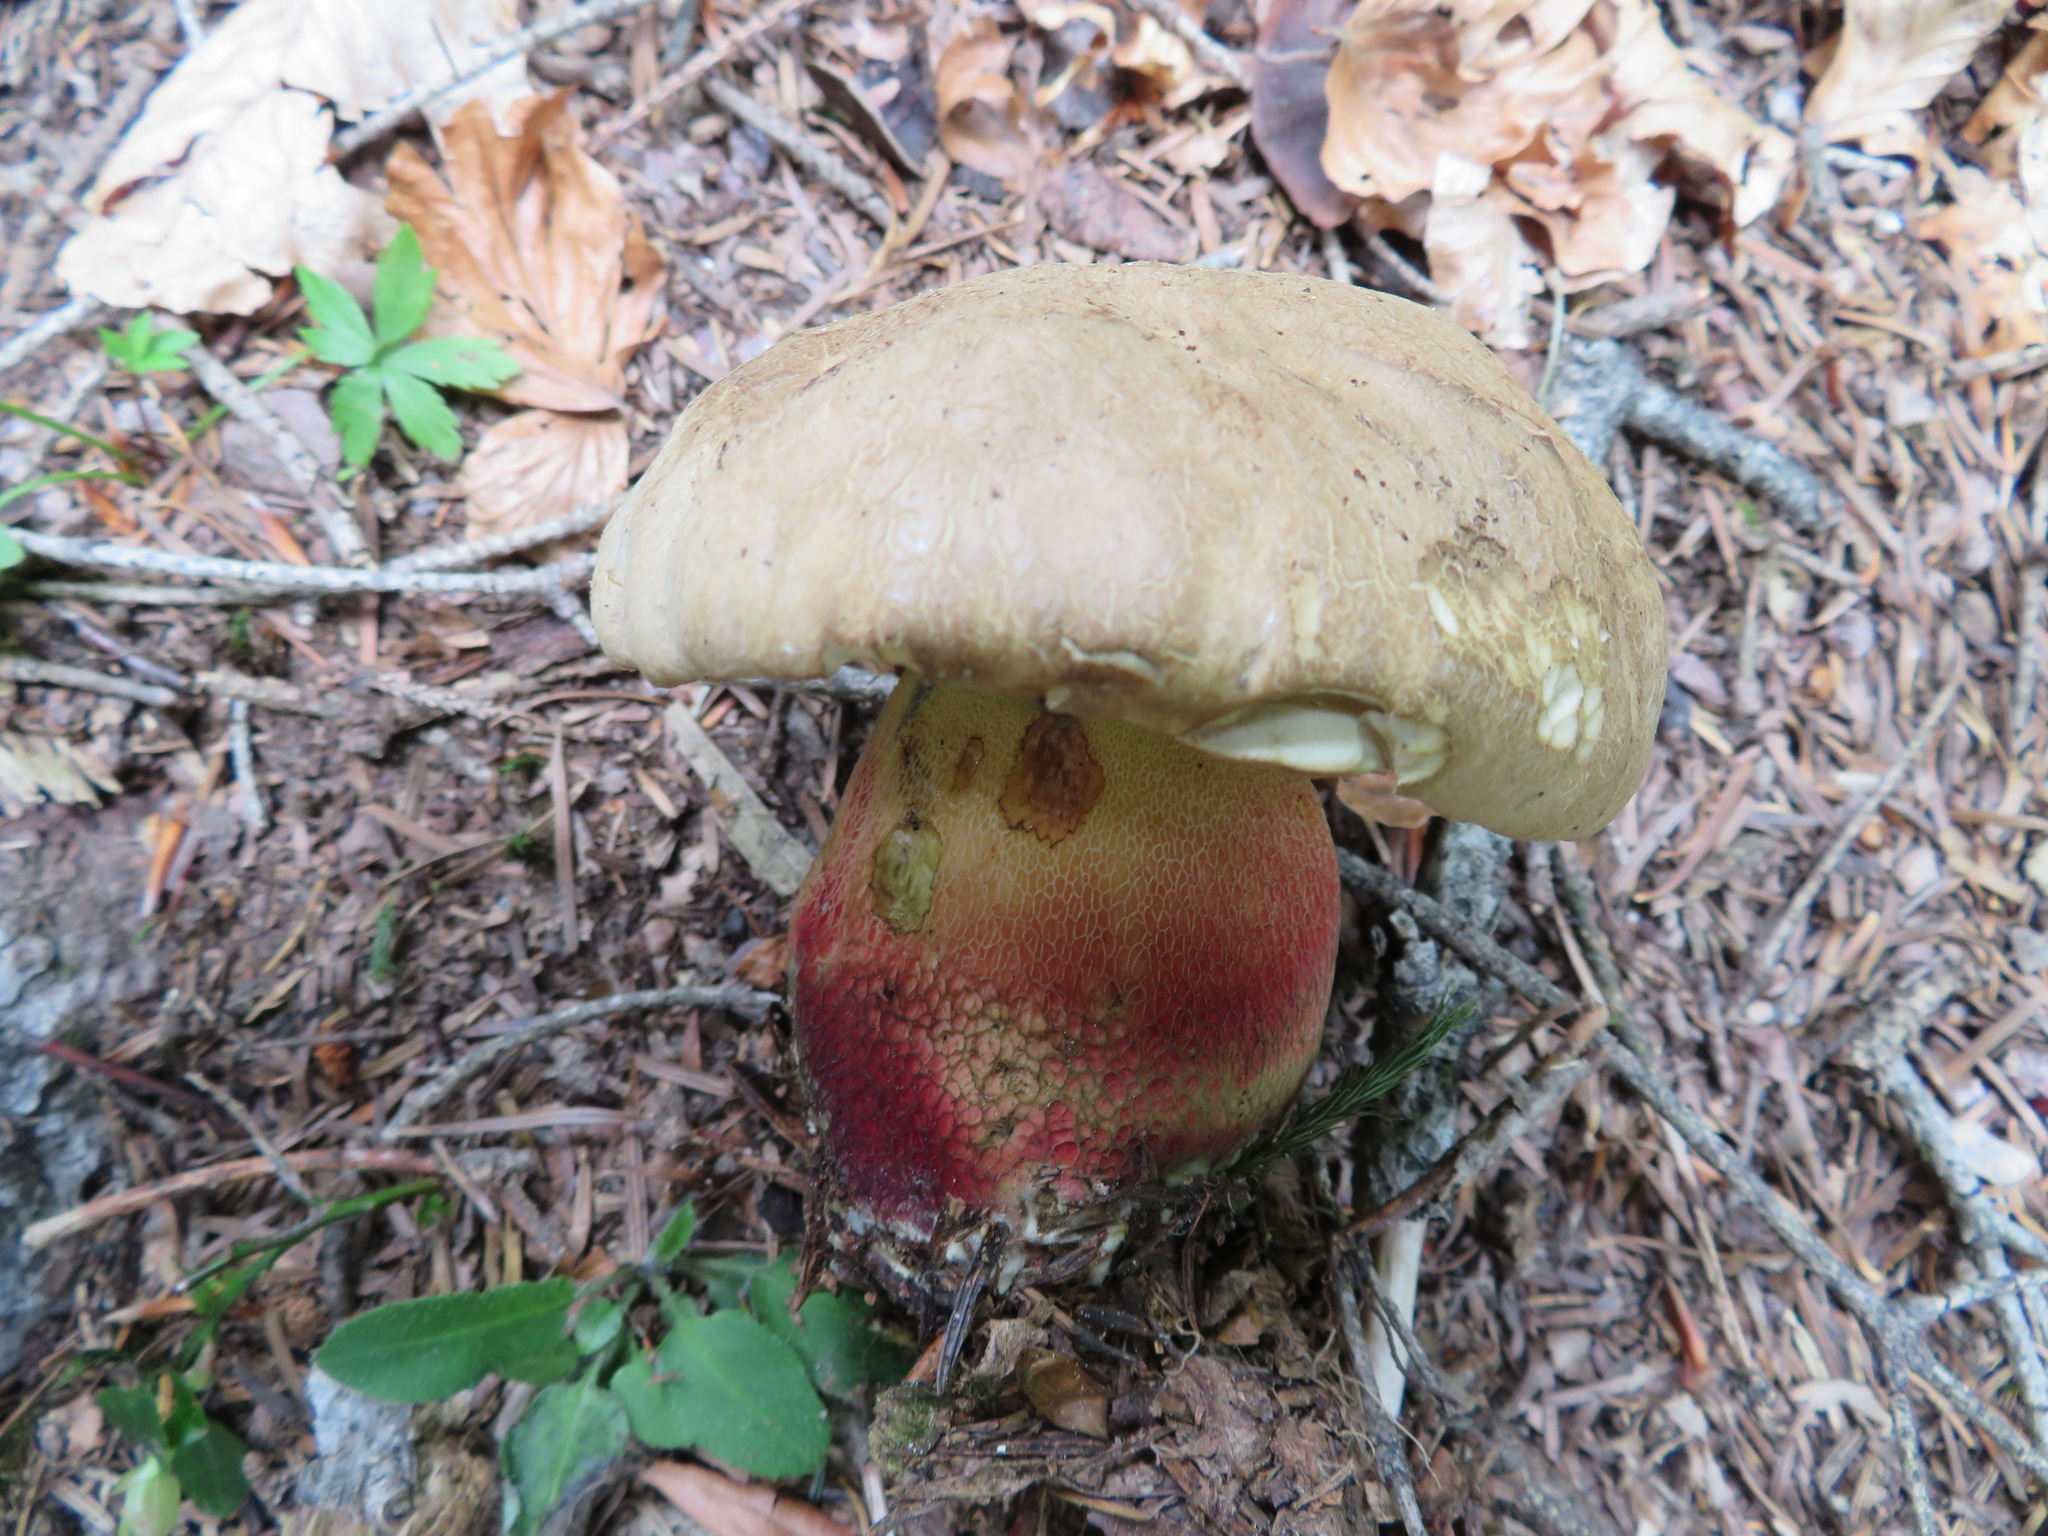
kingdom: Fungi
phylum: Basidiomycota
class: Agaricomycetes
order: Boletales
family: Boletaceae
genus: Caloboletus
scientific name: Caloboletus calopus
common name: Bitter beech bolete
